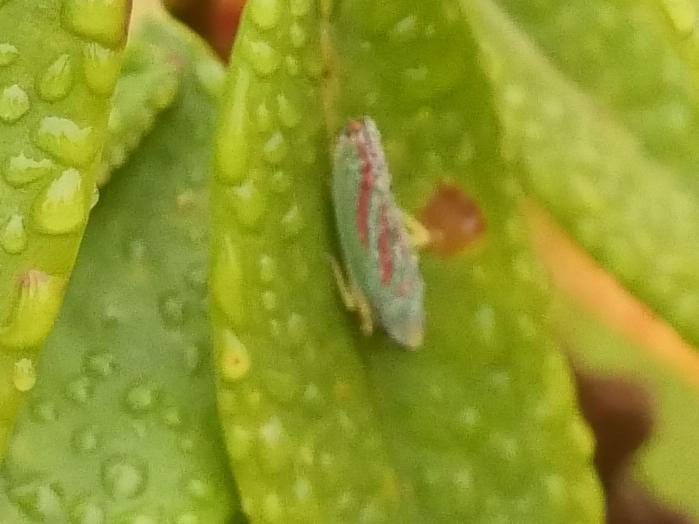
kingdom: Animalia
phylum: Arthropoda
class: Insecta
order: Hemiptera
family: Cicadellidae
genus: Graphocephala
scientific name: Graphocephala fennahi
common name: Rhododendron leafhopper
